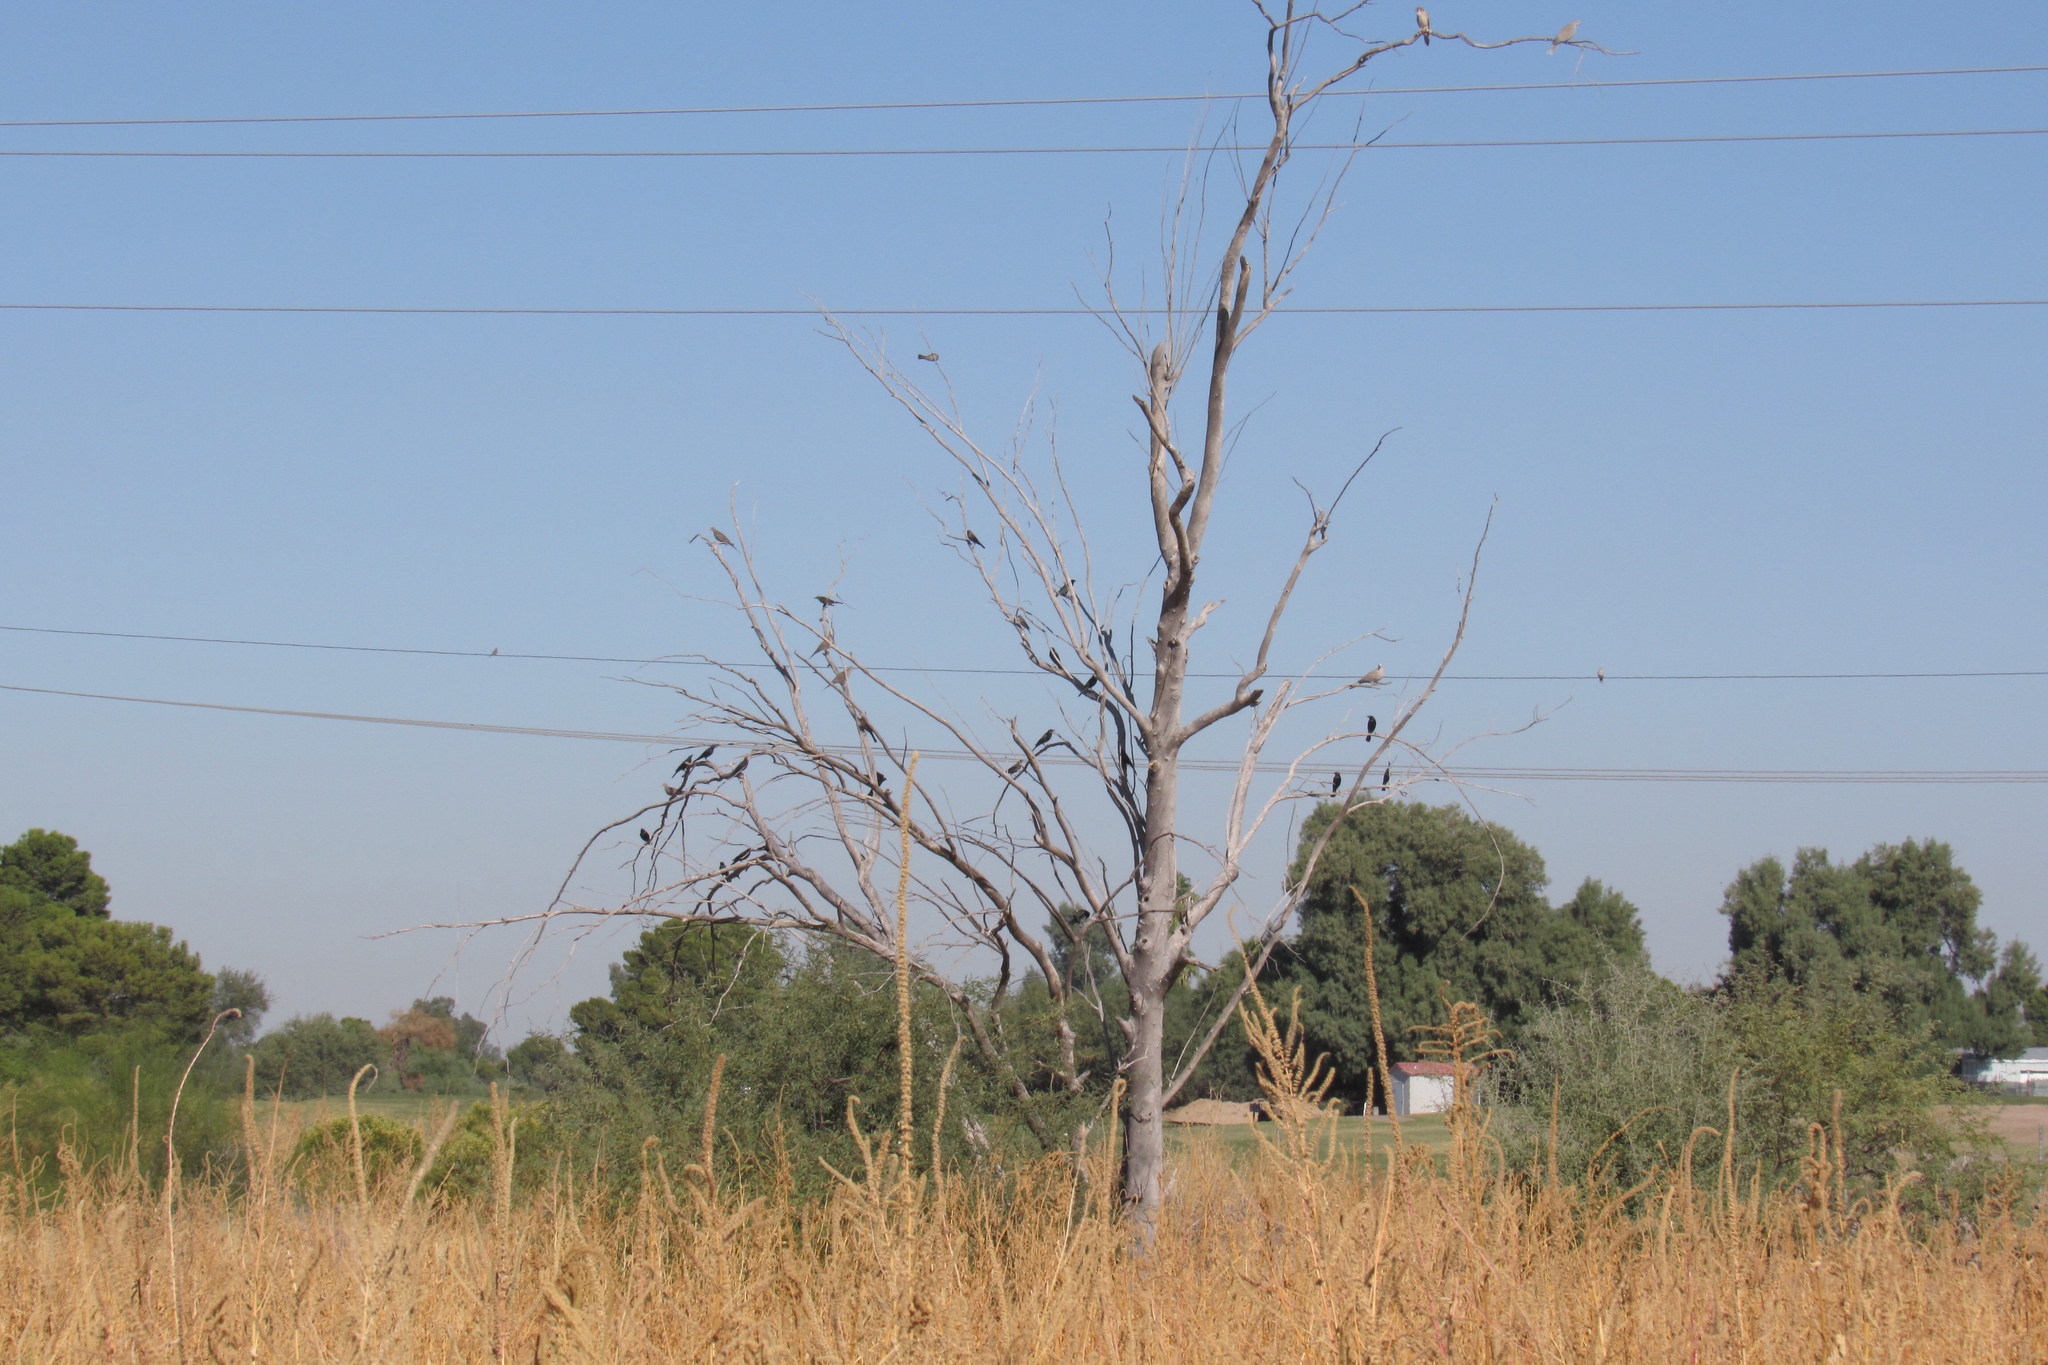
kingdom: Animalia
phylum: Chordata
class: Aves
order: Columbiformes
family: Columbidae
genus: Zenaida
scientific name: Zenaida macroura
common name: Mourning dove
